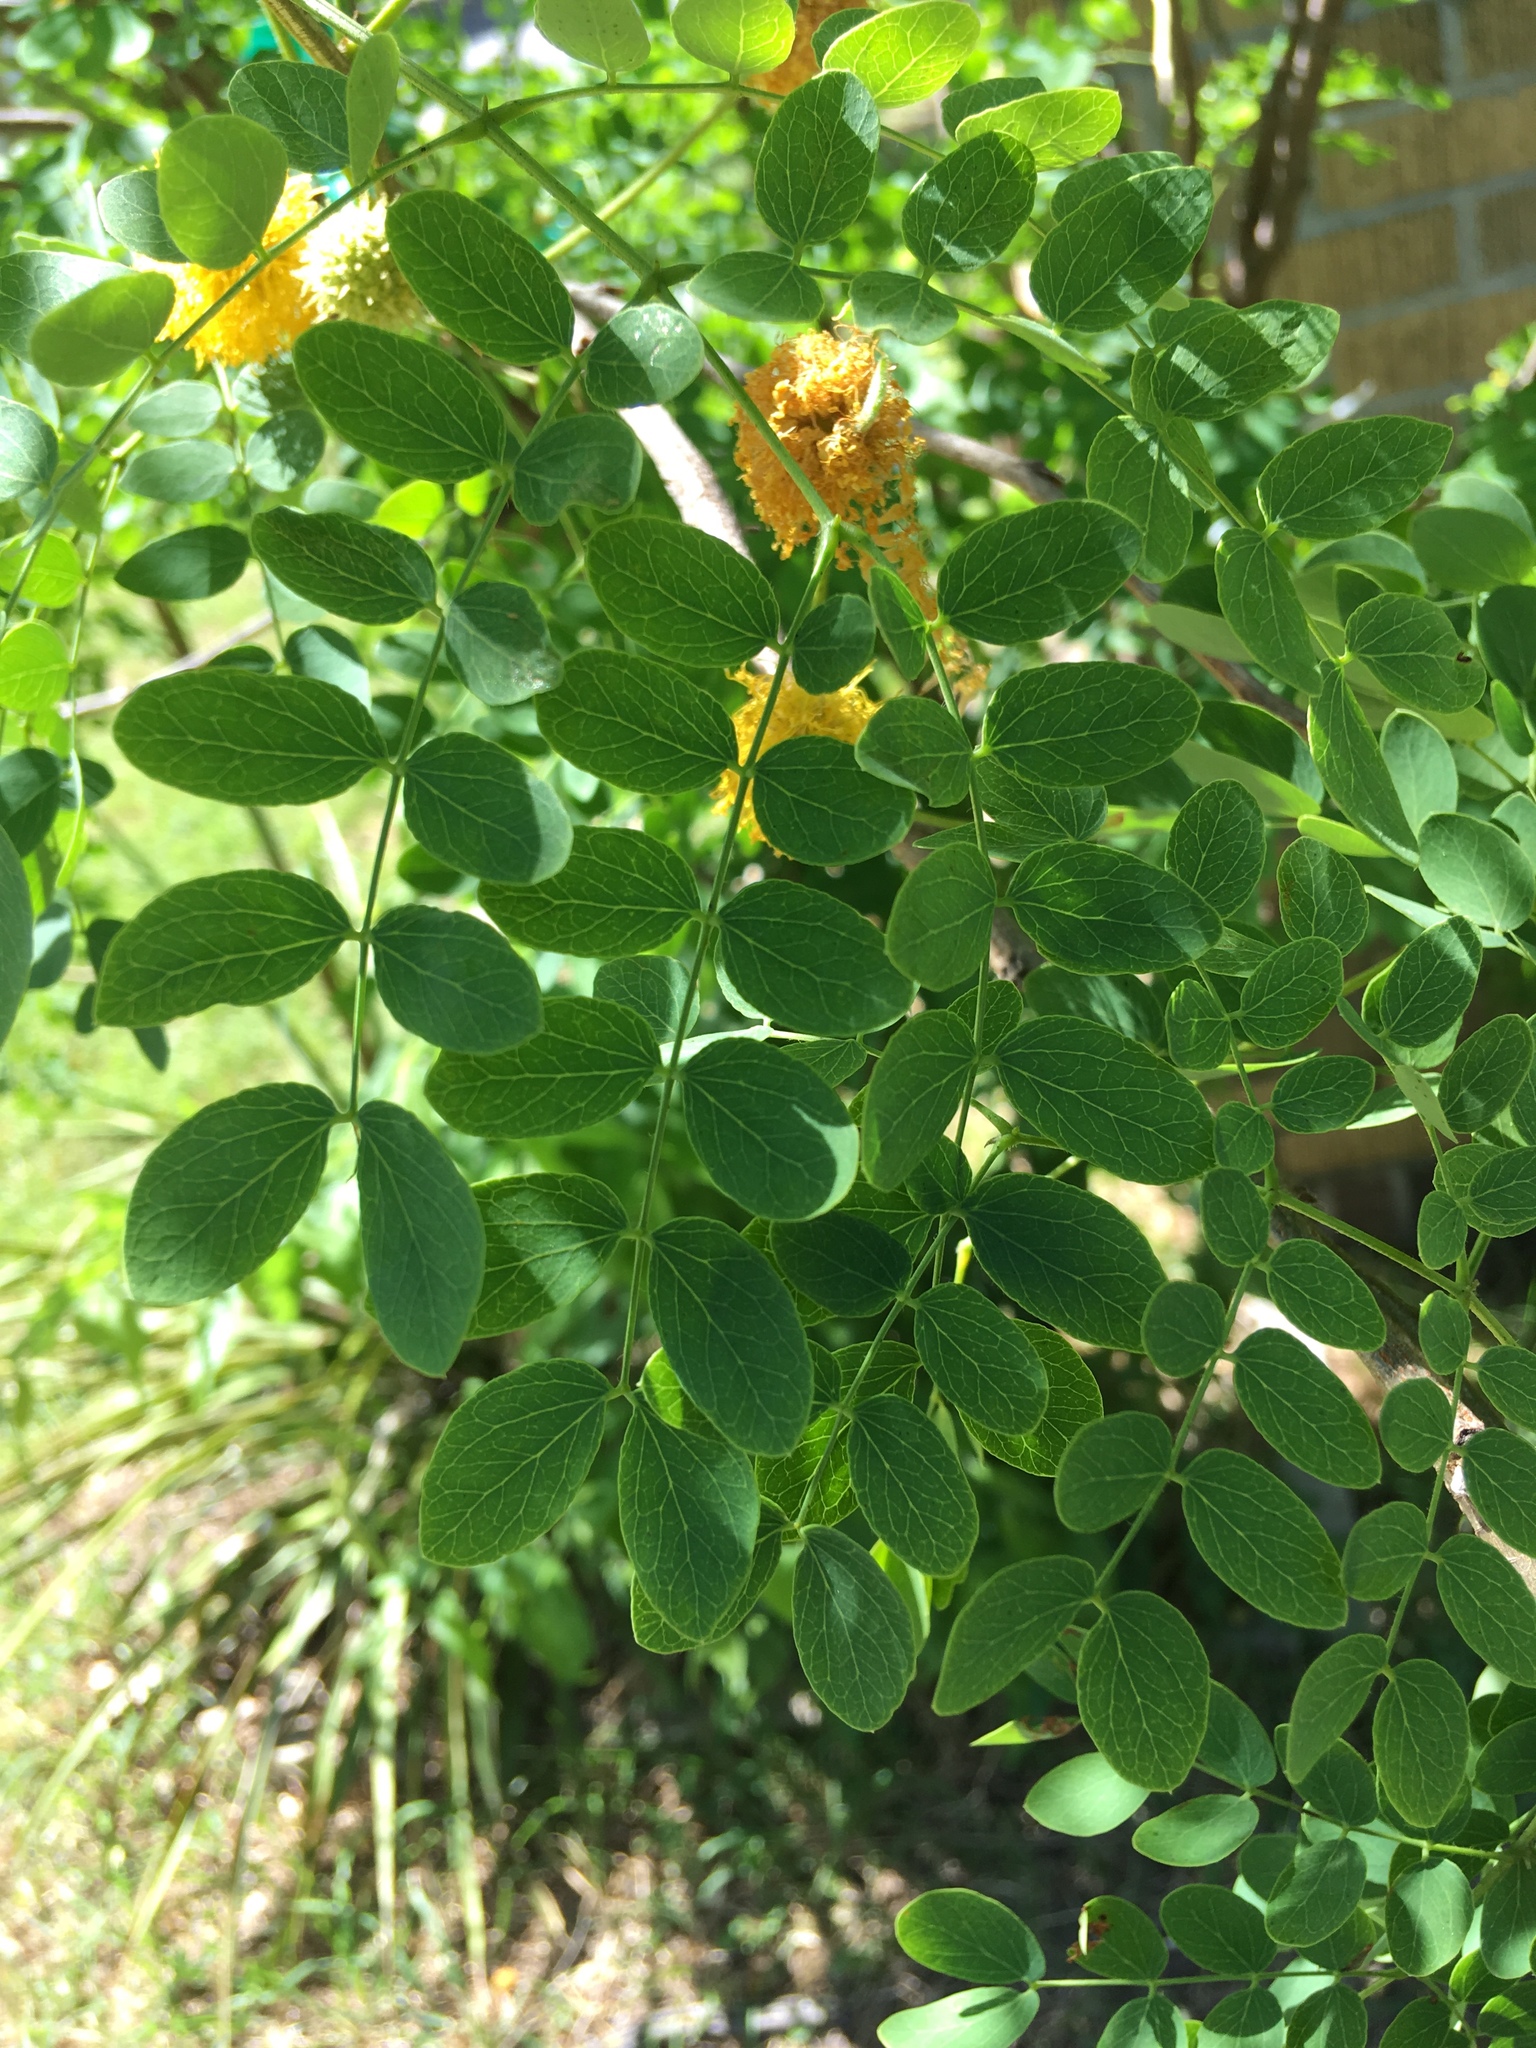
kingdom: Plantae
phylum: Tracheophyta
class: Magnoliopsida
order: Fabales
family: Fabaceae
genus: Leucaena
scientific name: Leucaena retusa
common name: Littleleaf leadtree
